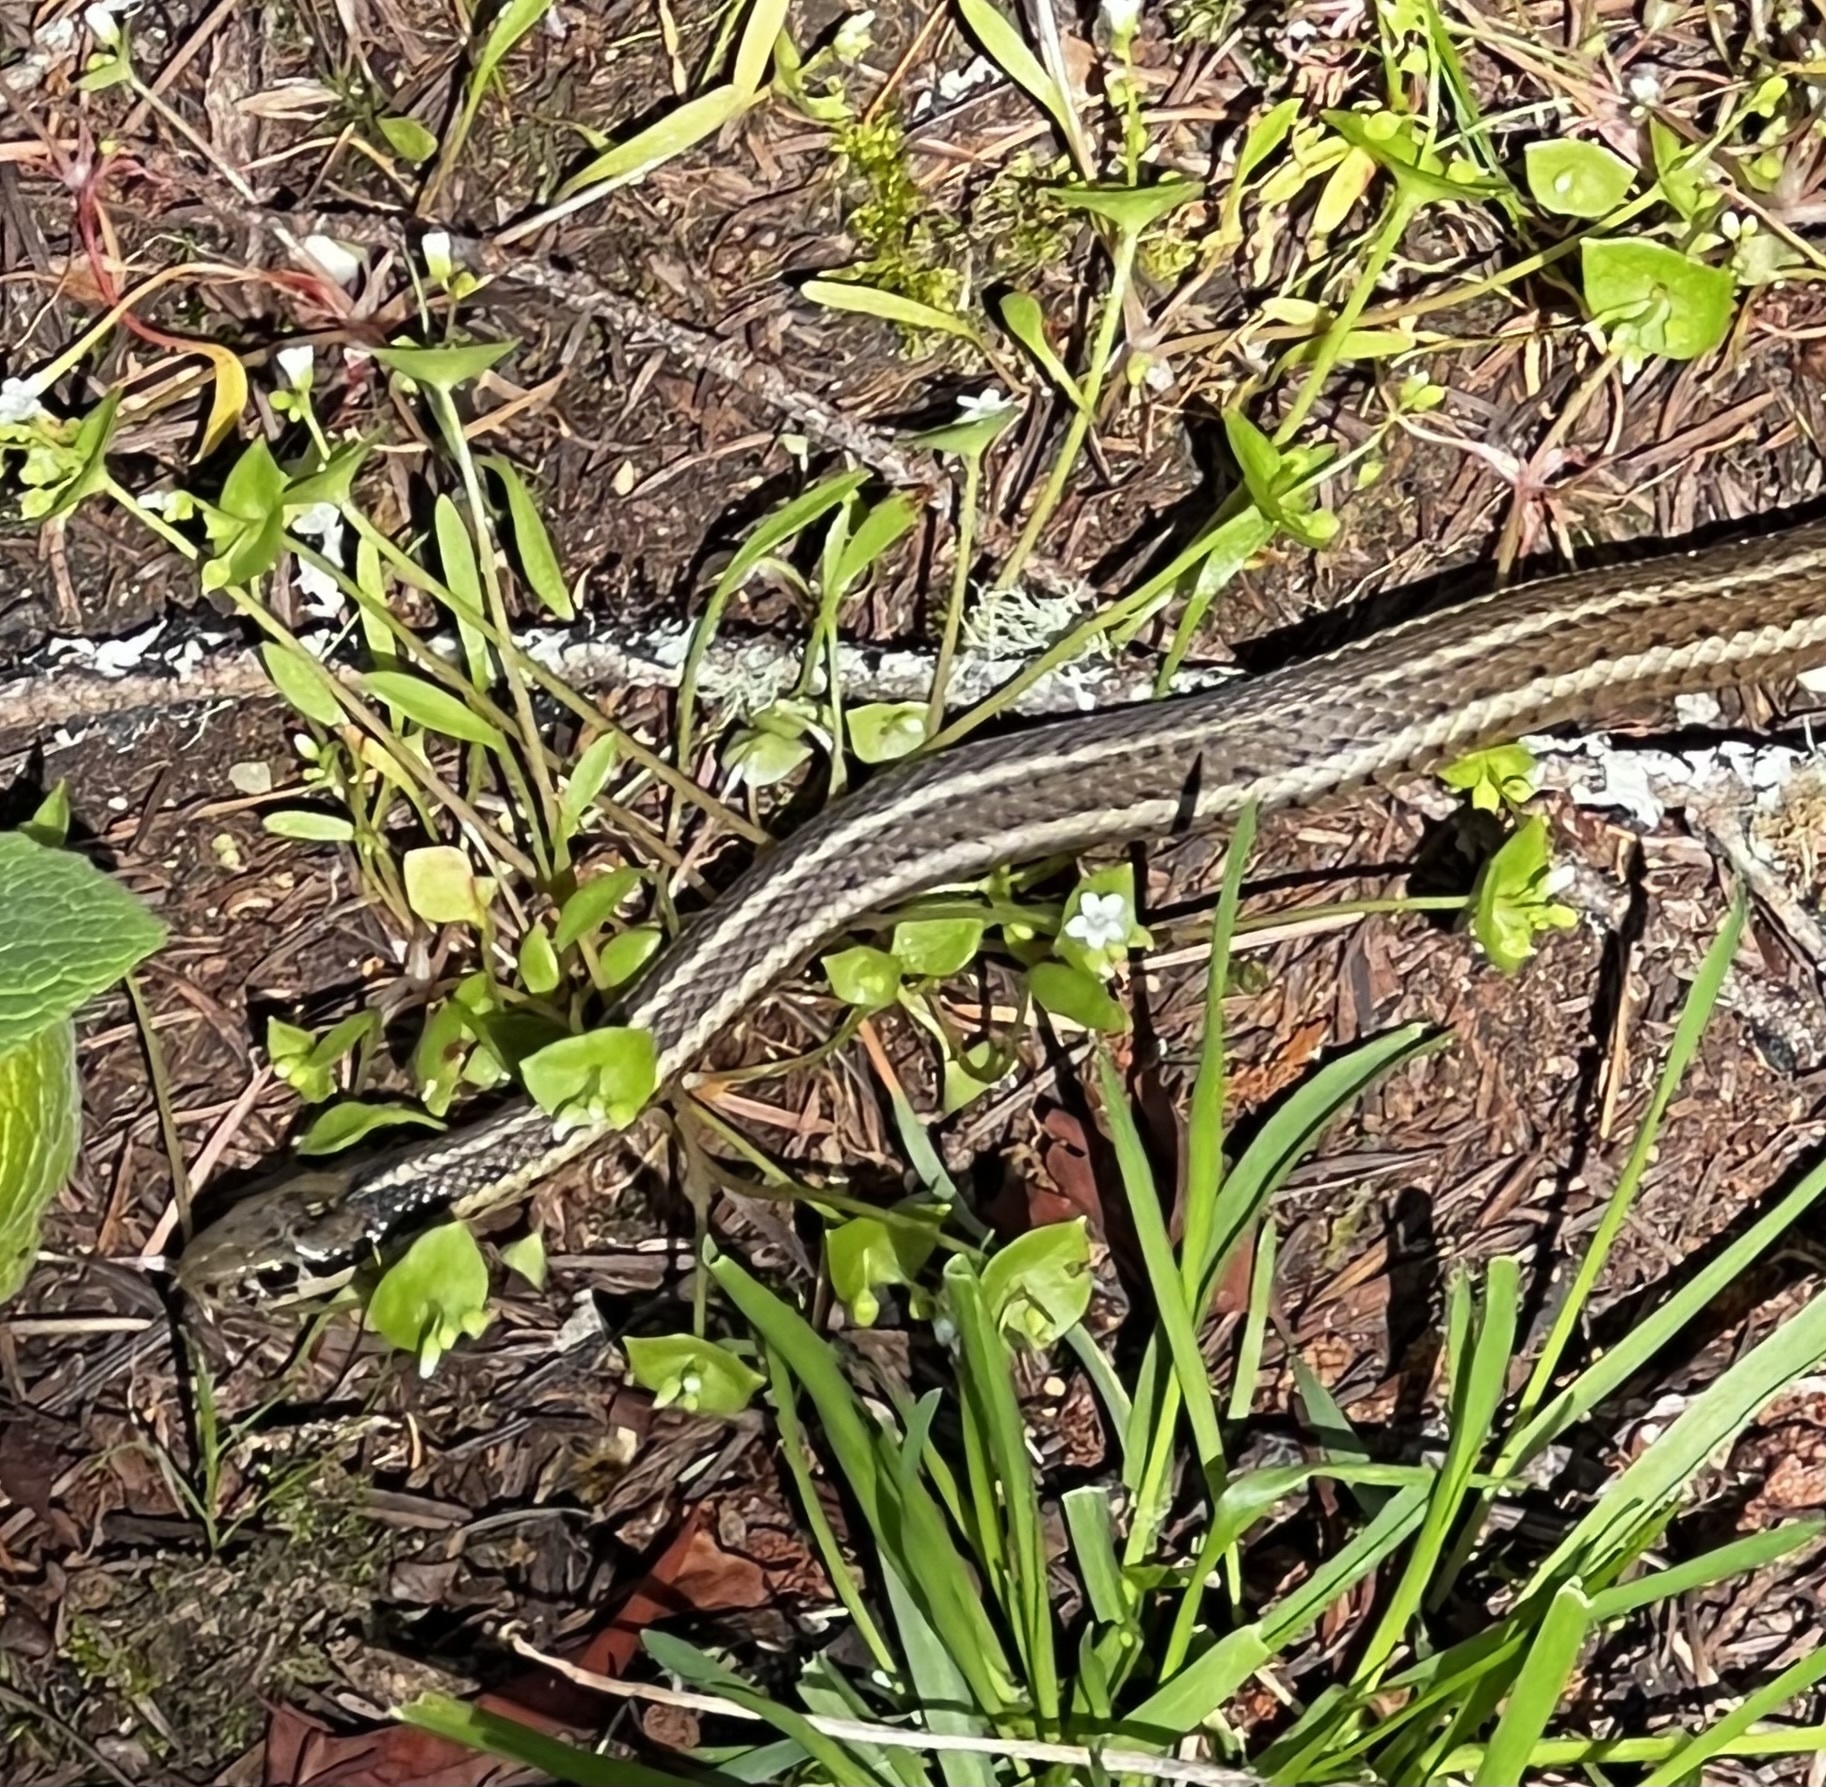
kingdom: Animalia
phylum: Chordata
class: Squamata
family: Colubridae
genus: Thamnophis
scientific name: Thamnophis ordinoides
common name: Northwestern garter snake
